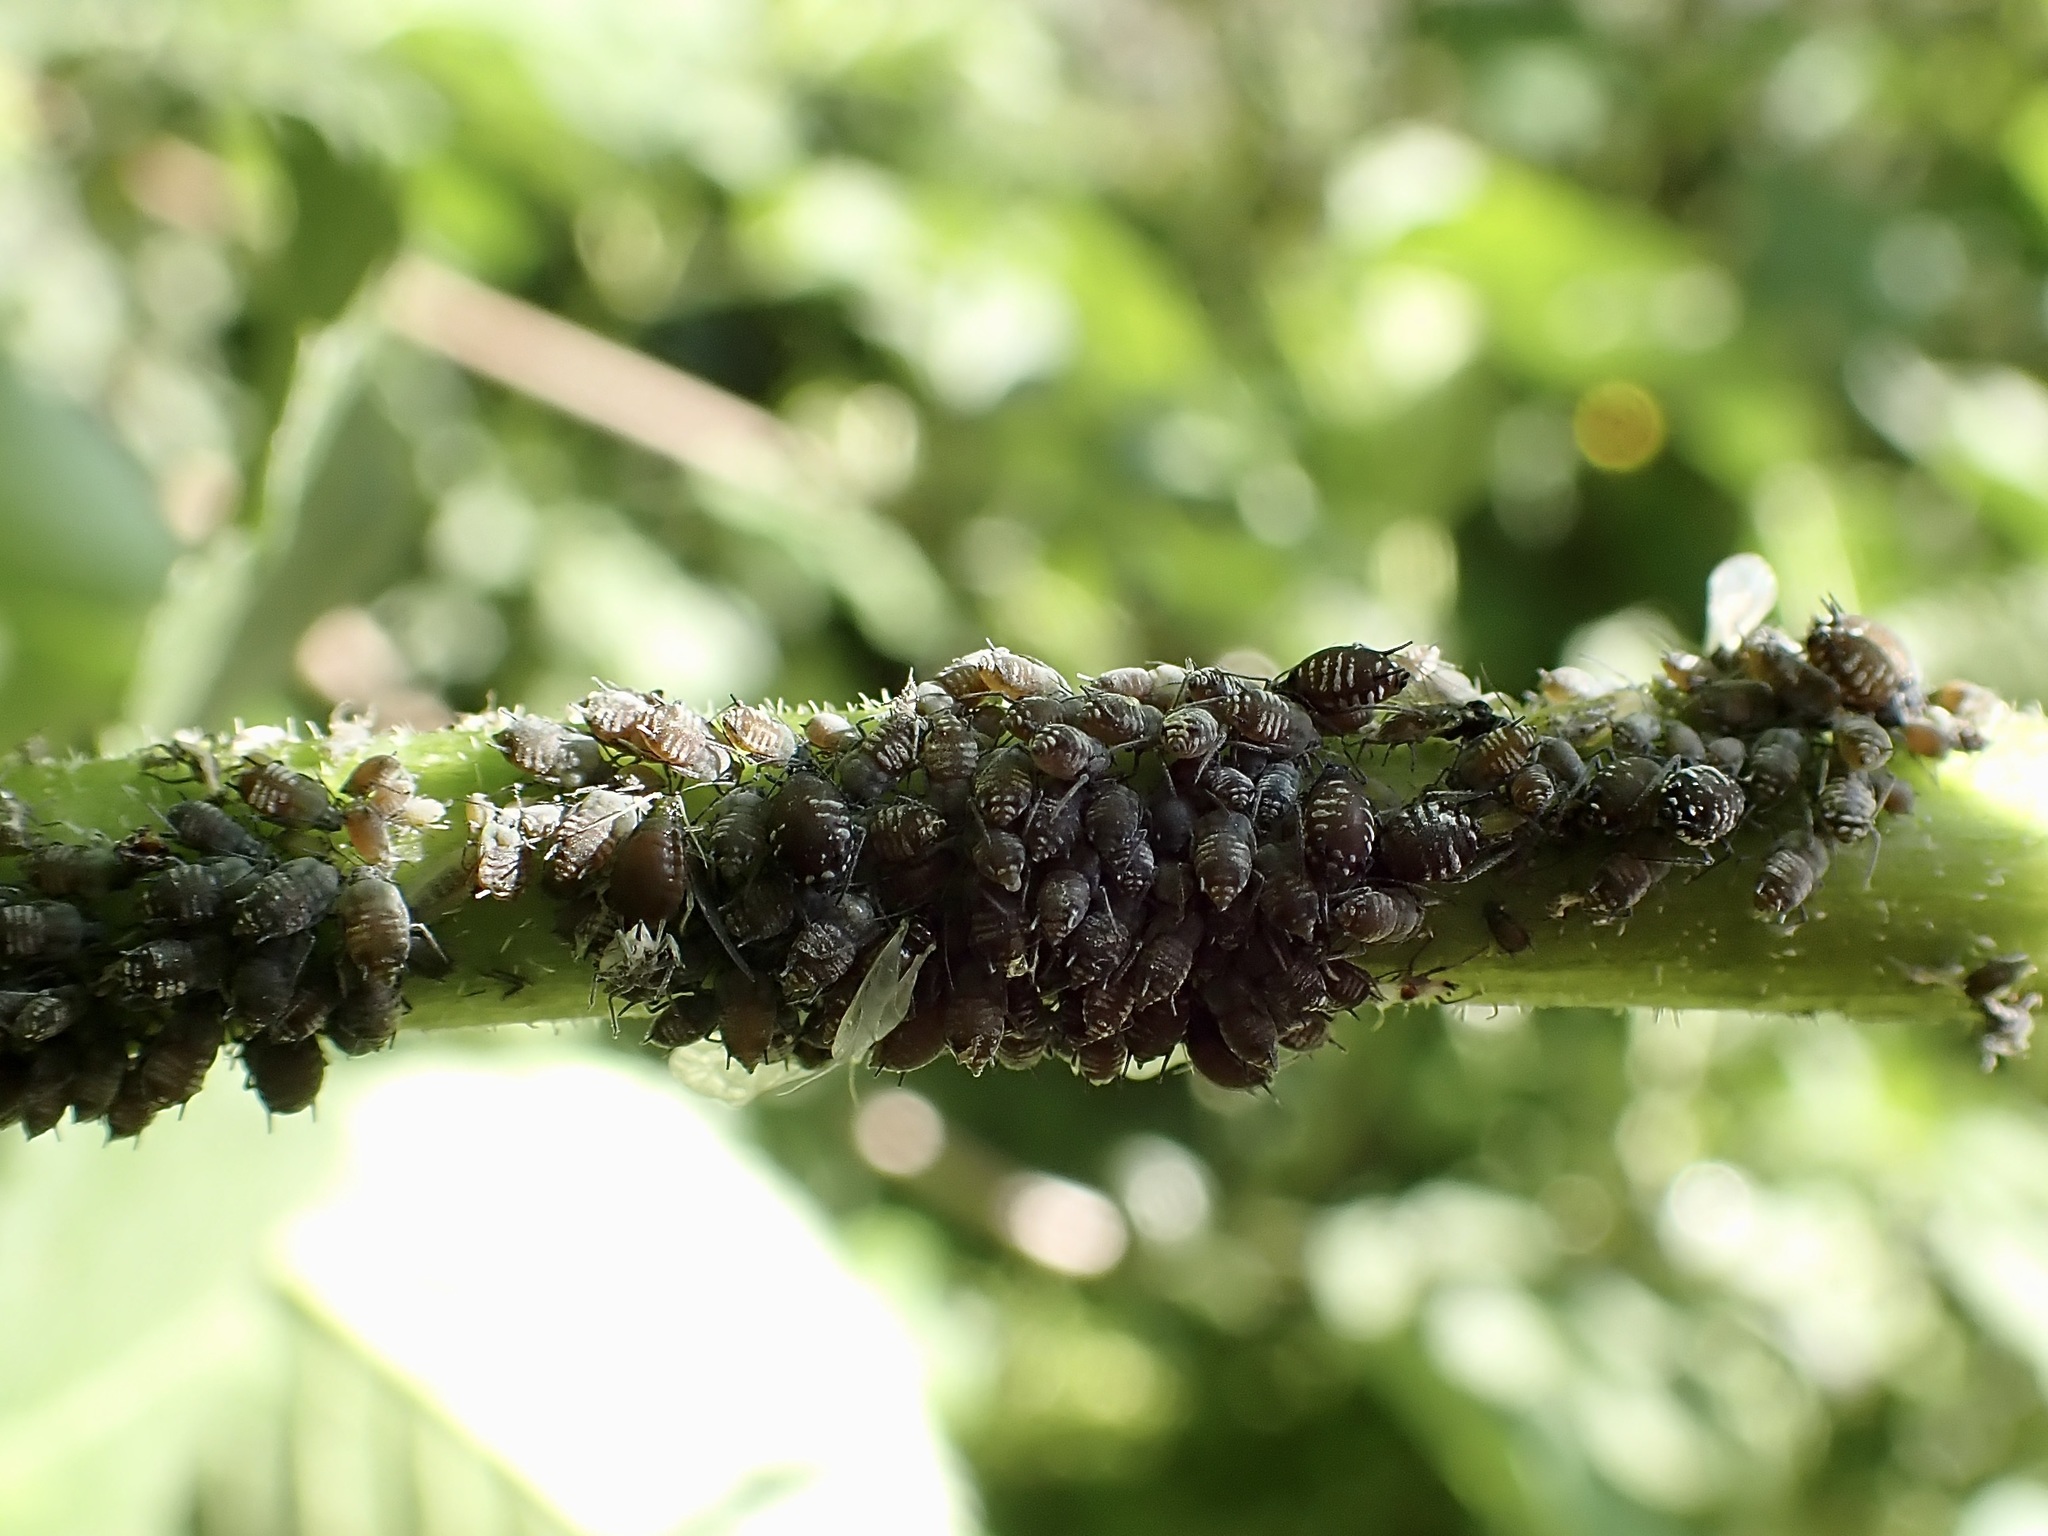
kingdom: Animalia
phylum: Arthropoda
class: Insecta
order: Hemiptera
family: Aphididae
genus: Aphis
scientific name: Aphis sambuci
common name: Elder aphid
